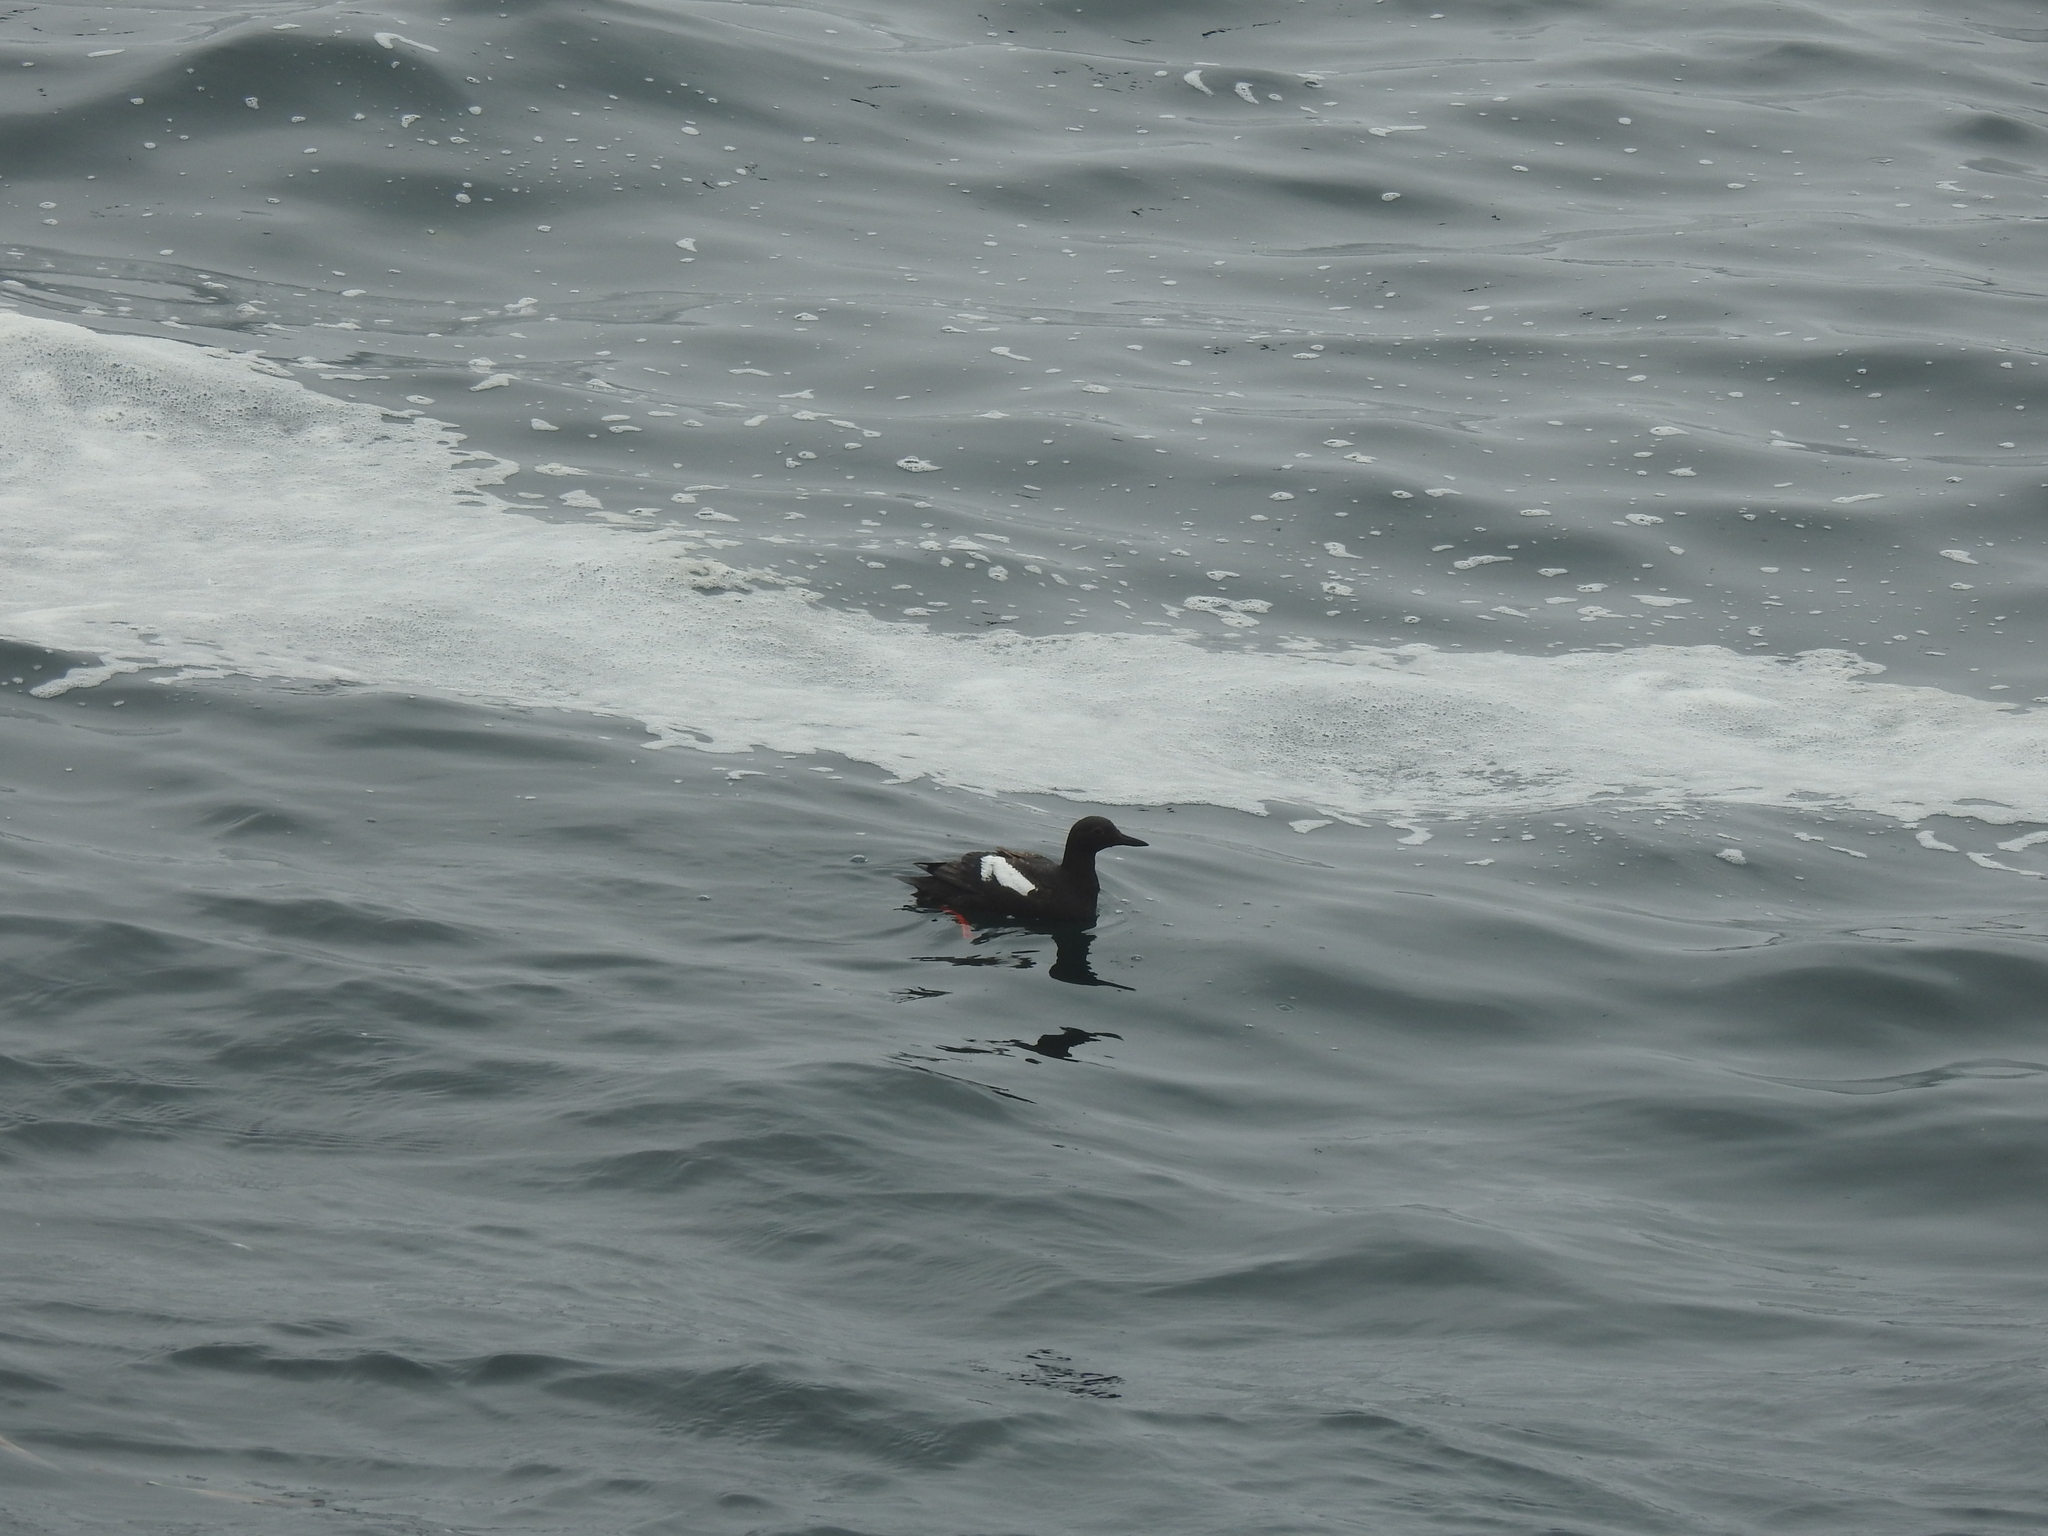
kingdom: Animalia
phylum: Chordata
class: Aves
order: Charadriiformes
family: Alcidae
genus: Cepphus
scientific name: Cepphus columba
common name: Pigeon guillemot
